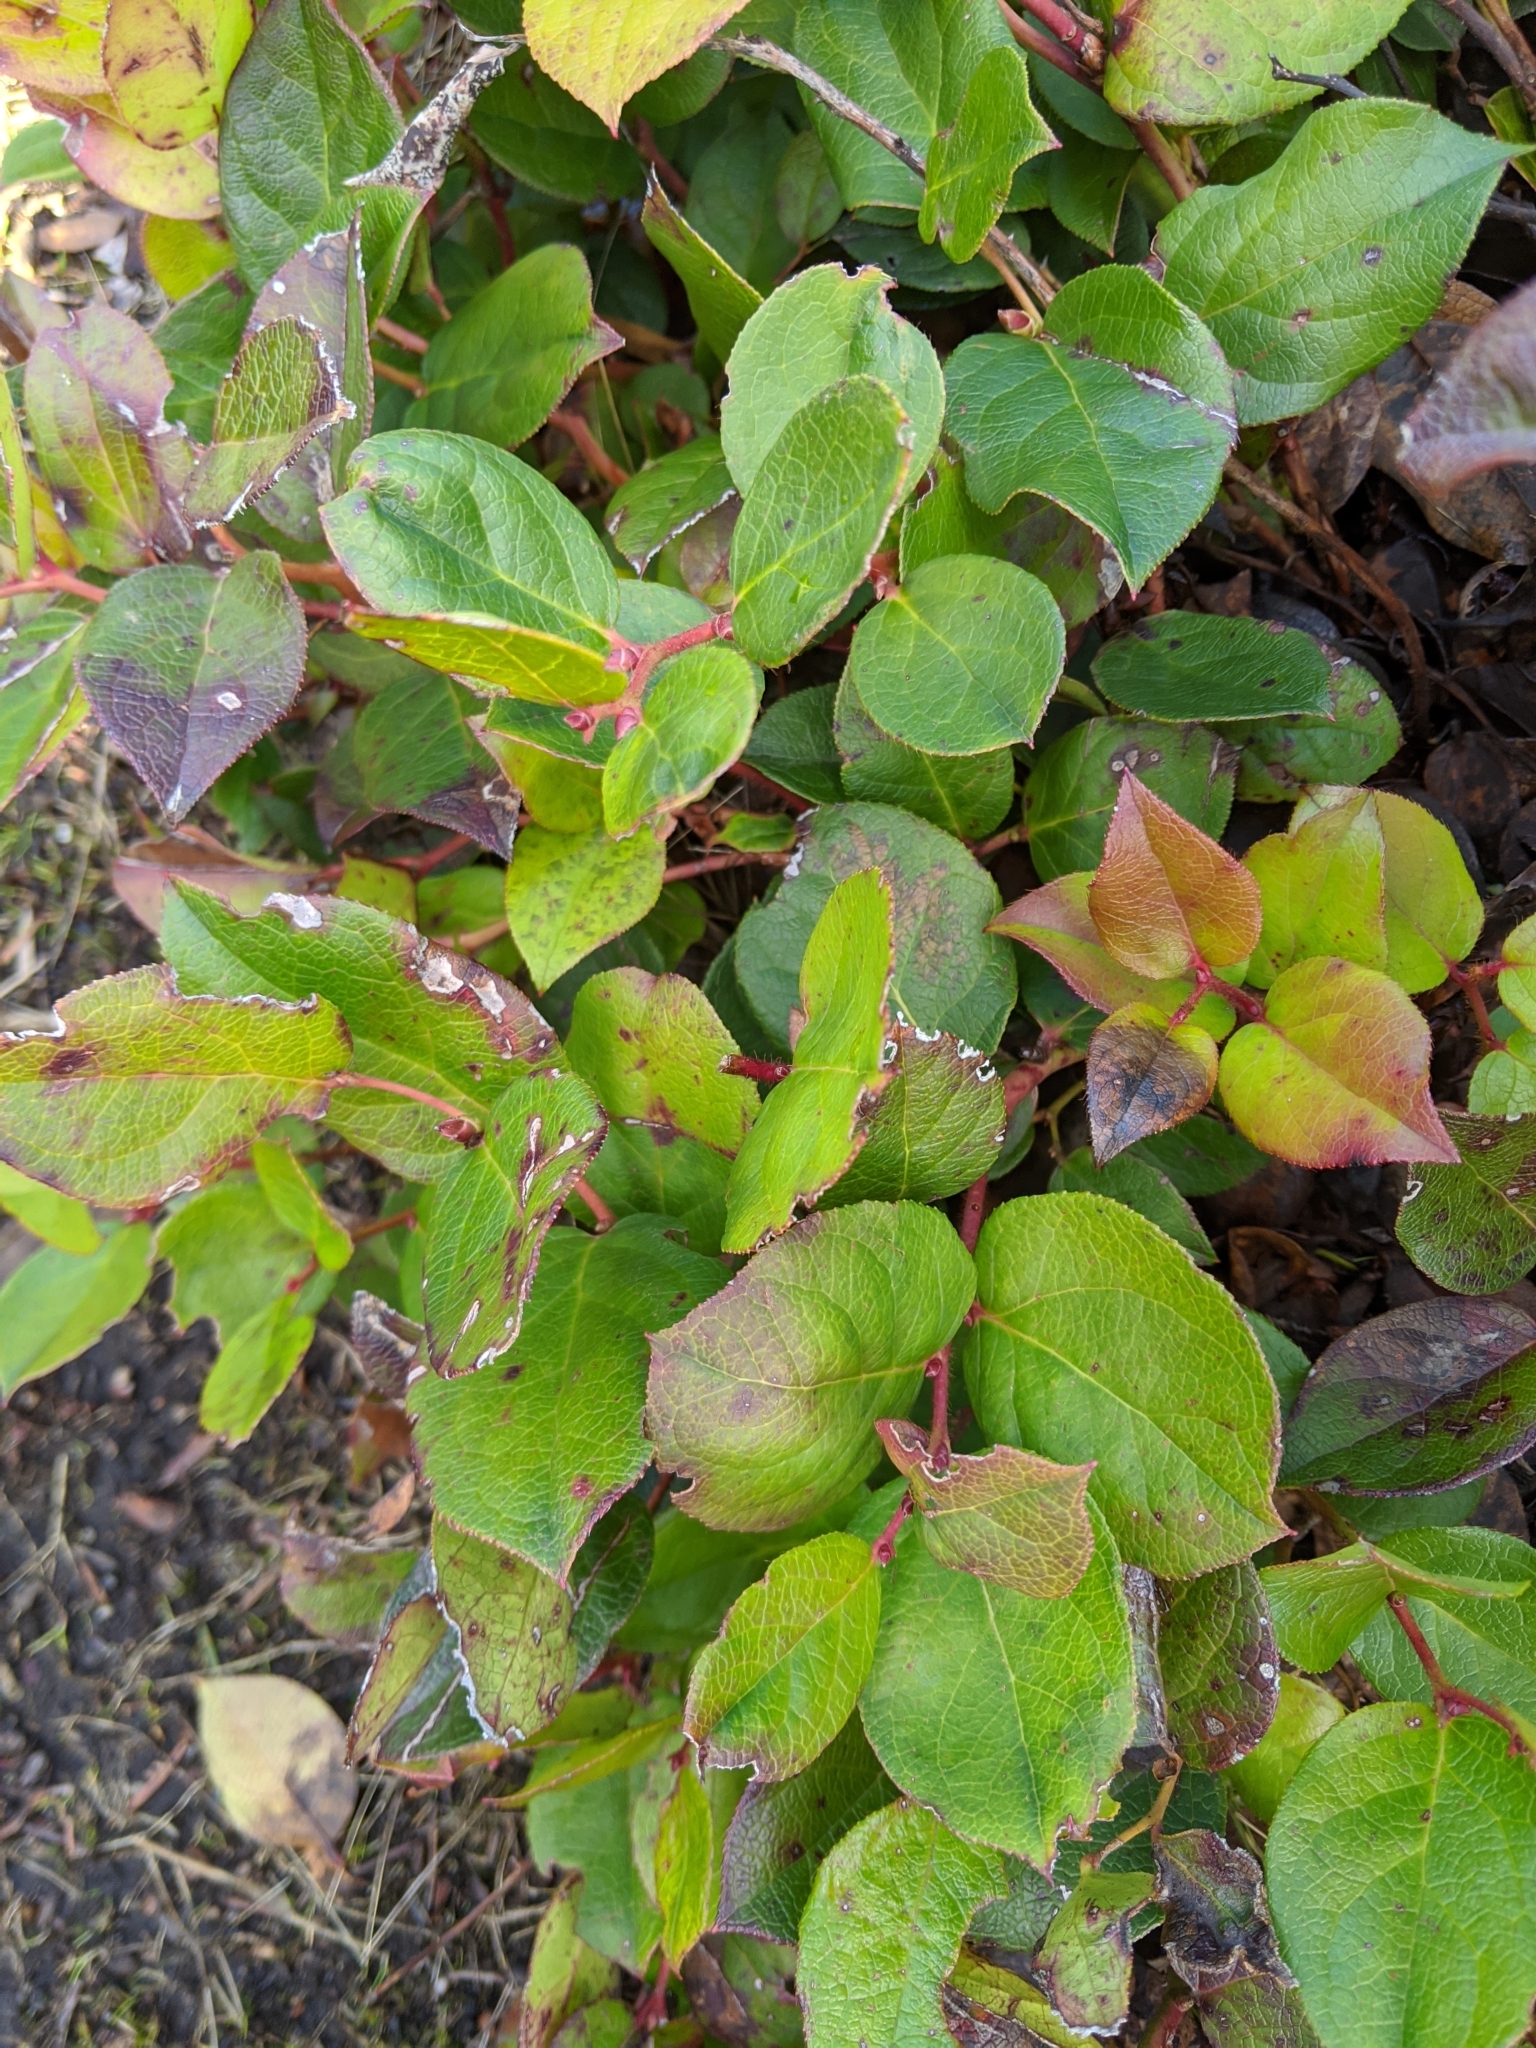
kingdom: Plantae
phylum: Tracheophyta
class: Magnoliopsida
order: Ericales
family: Ericaceae
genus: Gaultheria
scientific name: Gaultheria shallon
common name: Shallon
